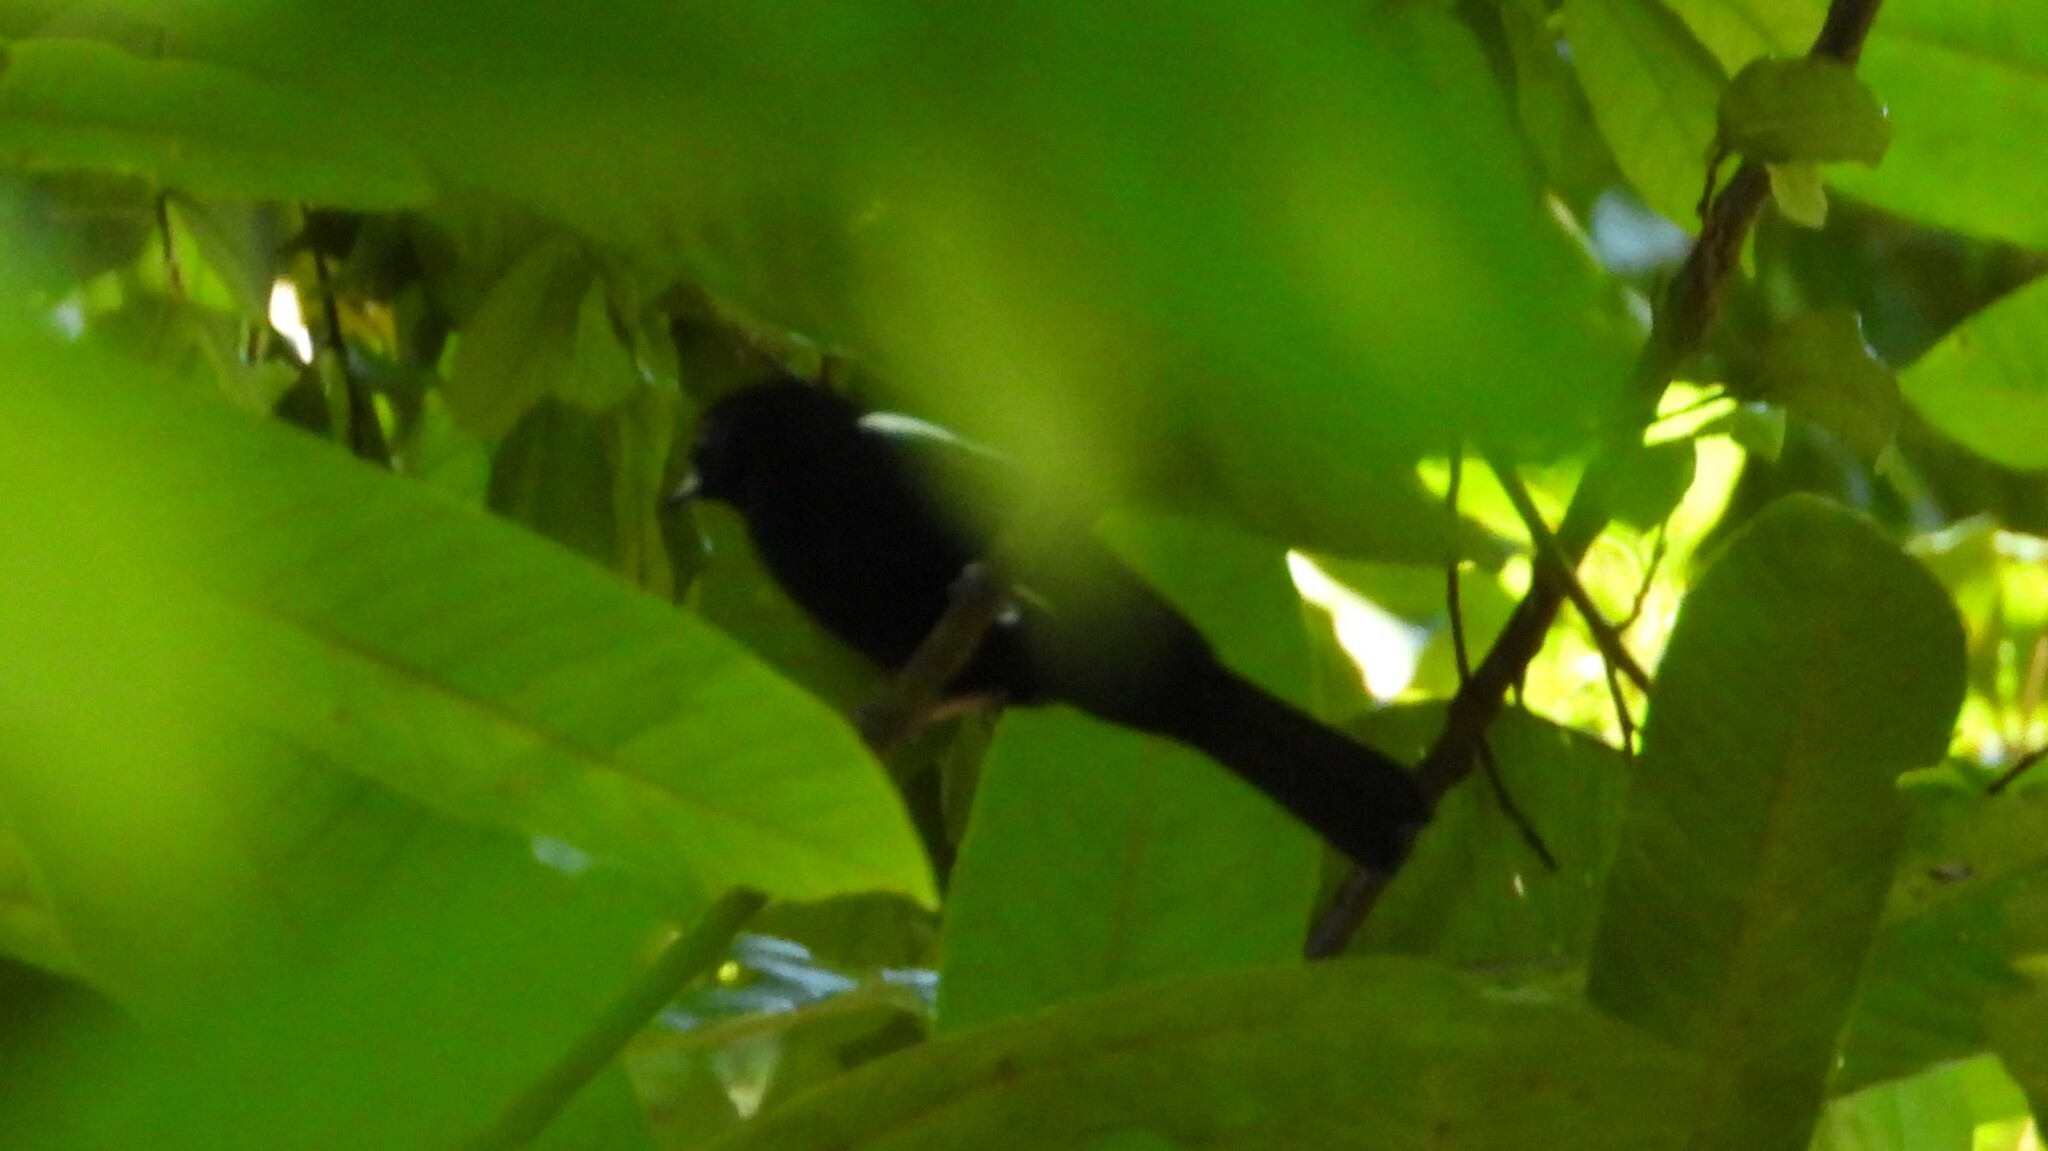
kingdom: Animalia
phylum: Chordata
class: Aves
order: Passeriformes
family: Thraupidae
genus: Loriotus
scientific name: Loriotus luctuosus
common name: White-shouldered tanager
